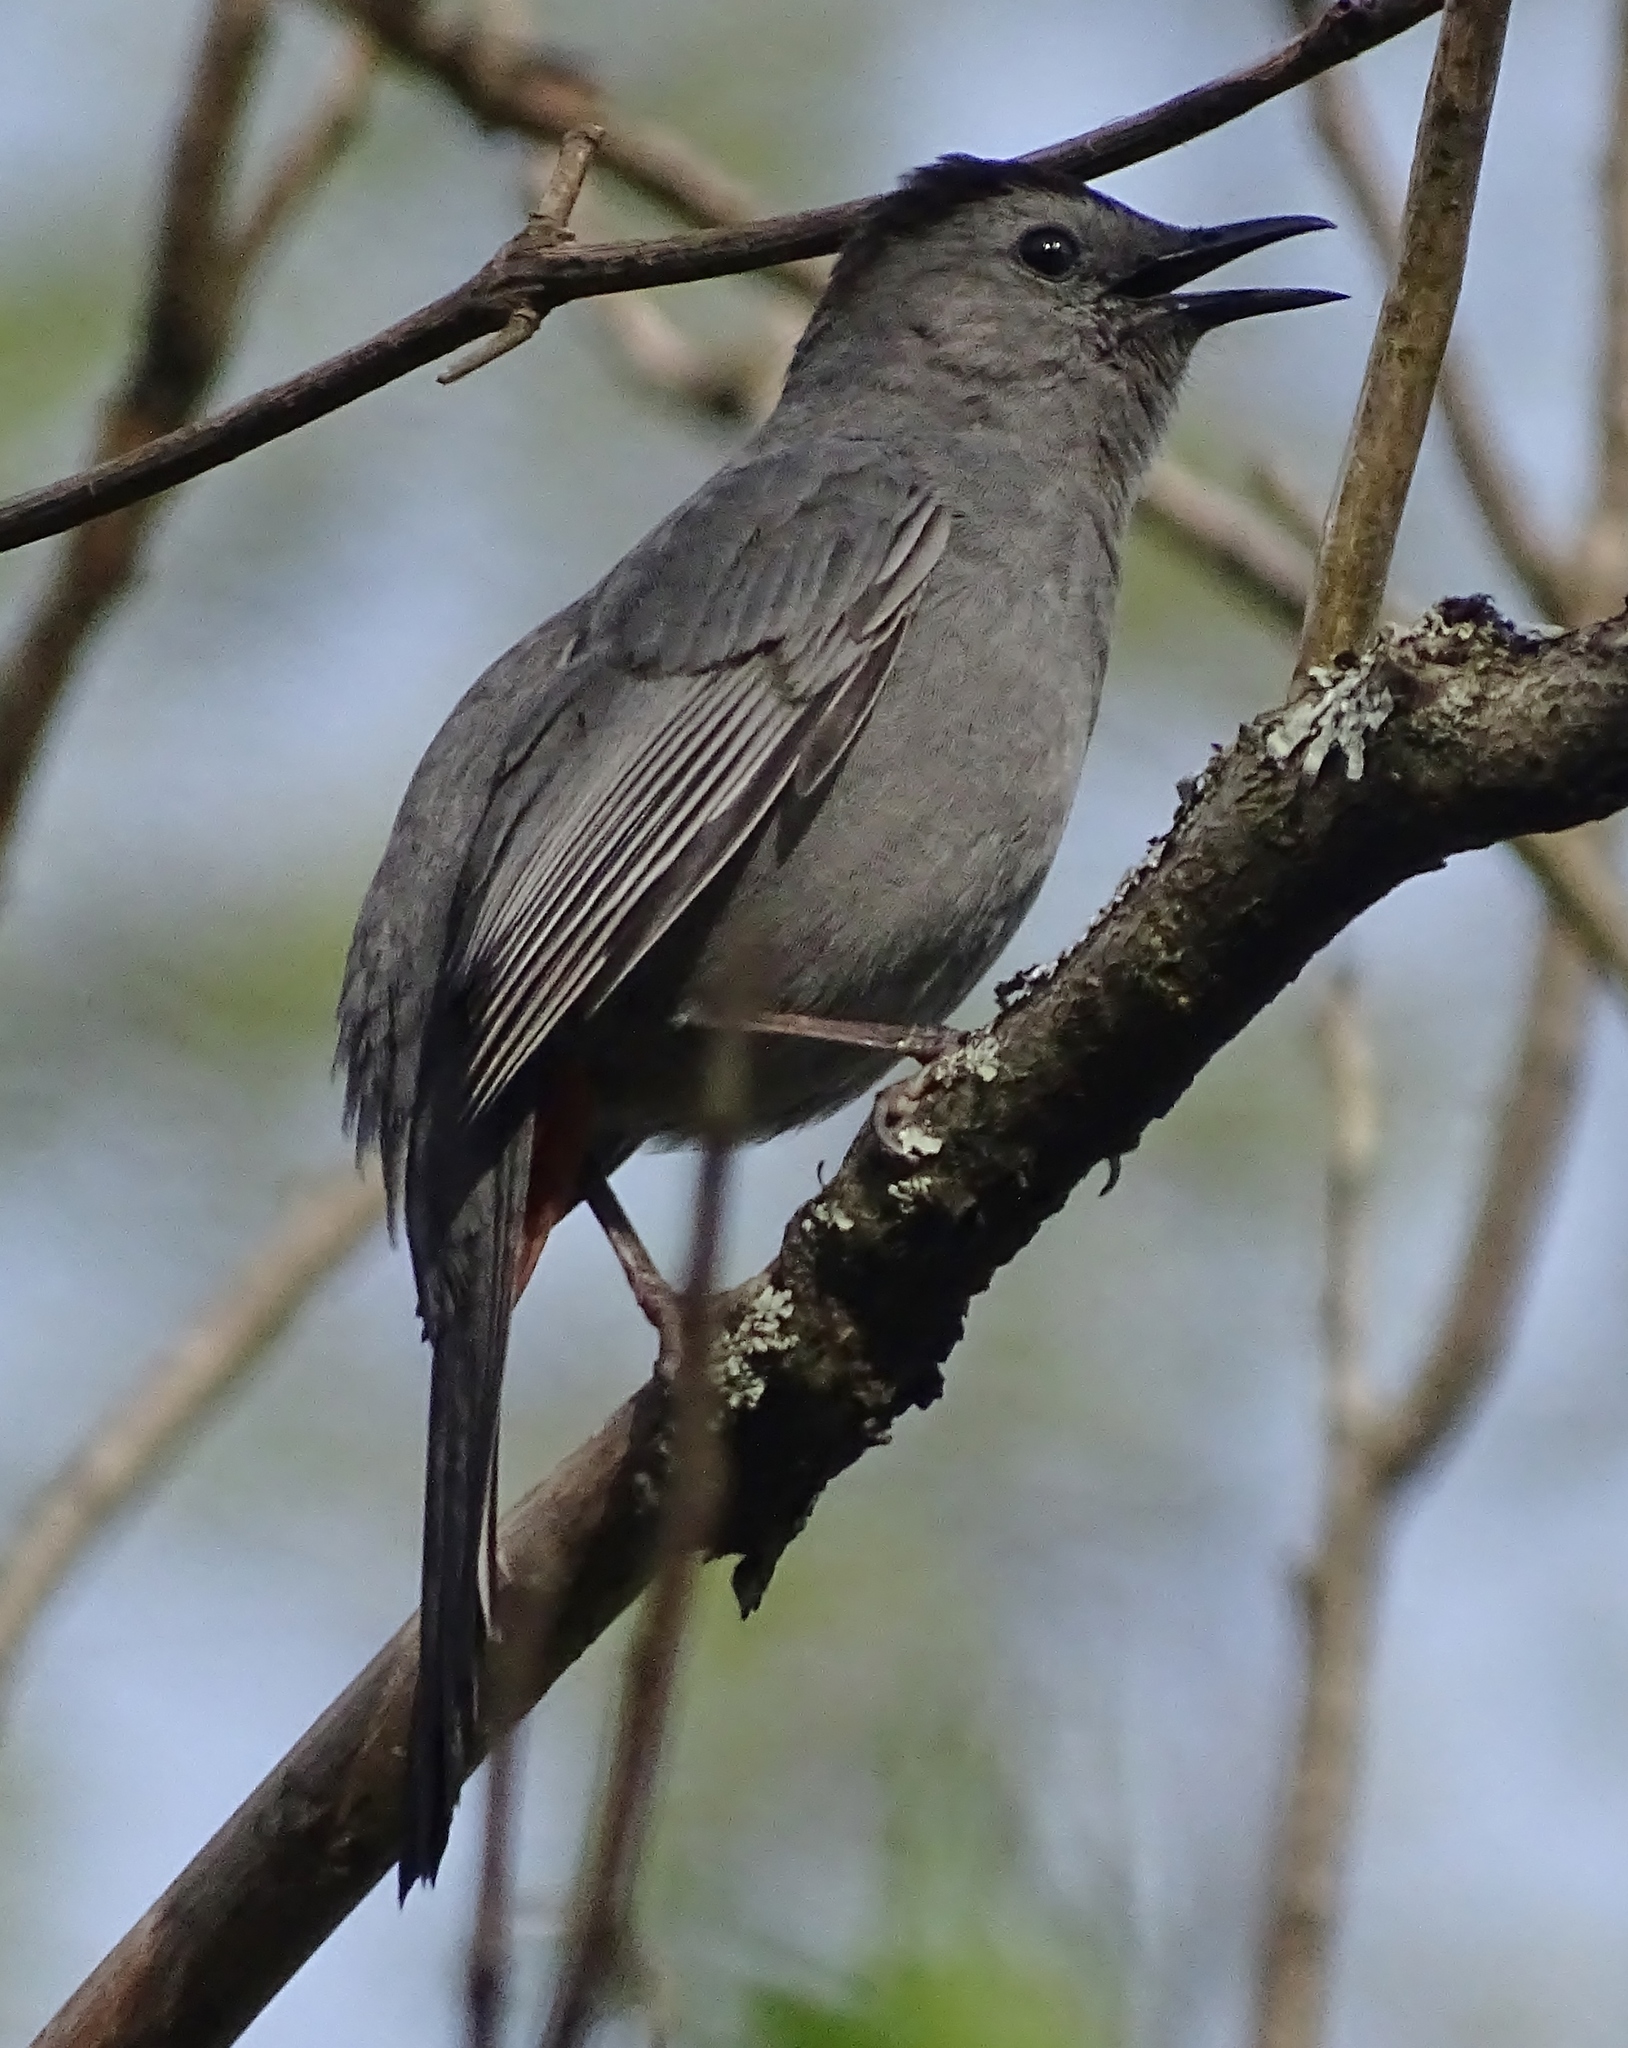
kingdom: Animalia
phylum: Chordata
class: Aves
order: Passeriformes
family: Mimidae
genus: Dumetella
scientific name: Dumetella carolinensis
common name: Gray catbird
